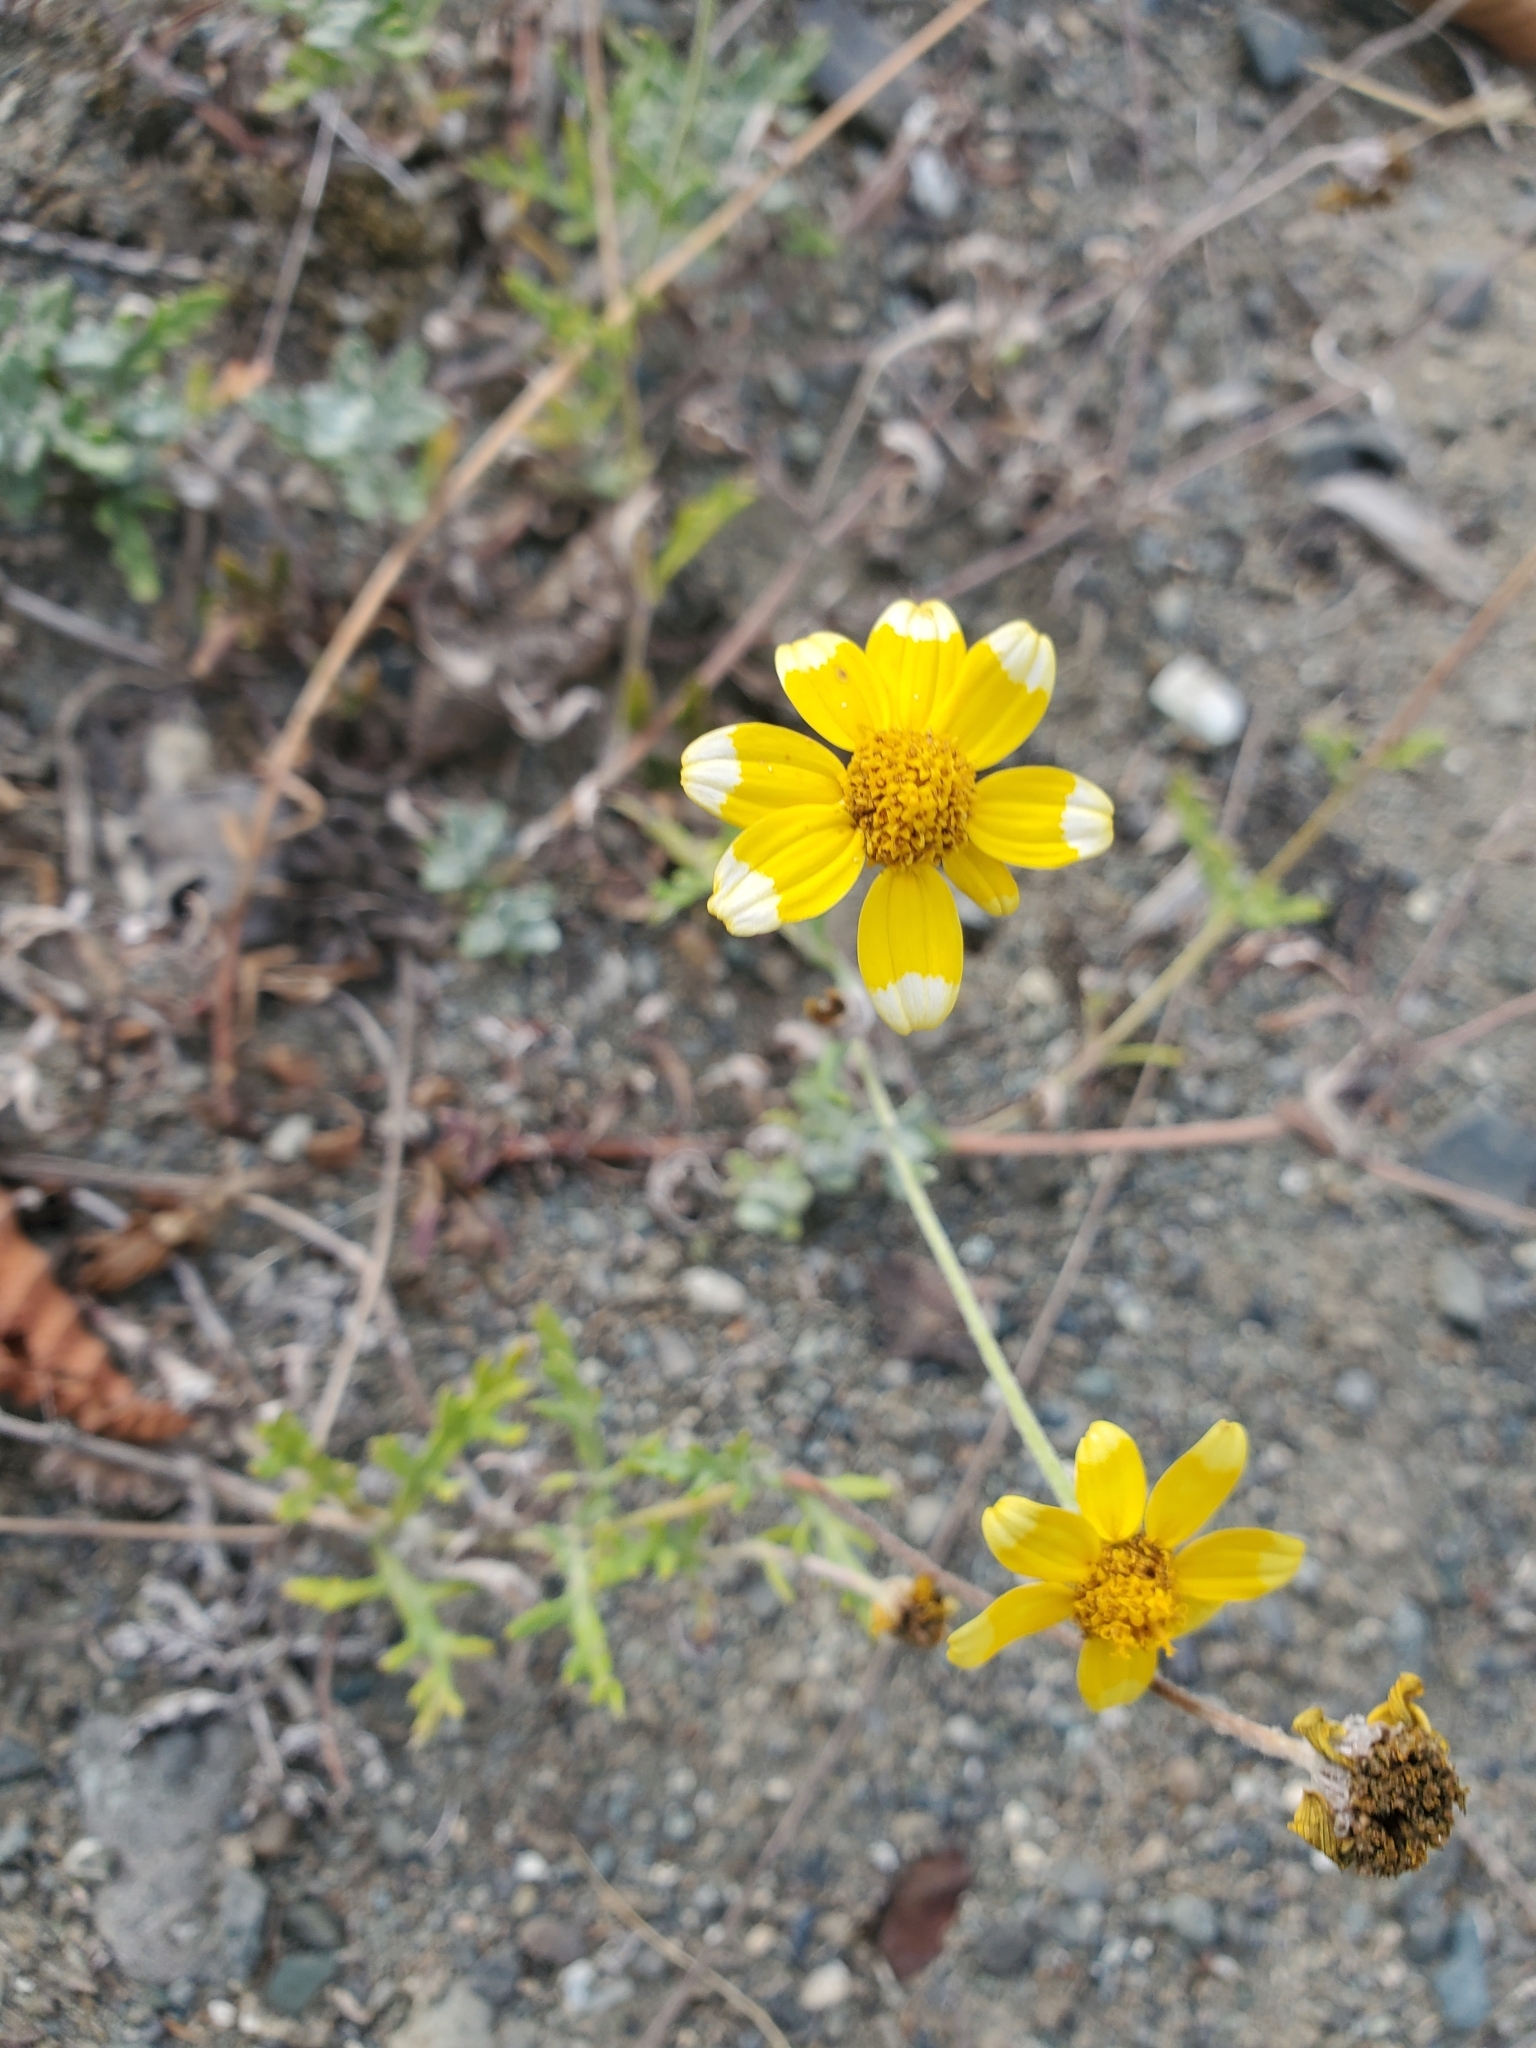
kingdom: Plantae
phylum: Tracheophyta
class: Magnoliopsida
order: Asterales
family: Asteraceae
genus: Eriophyllum
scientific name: Eriophyllum lanatum
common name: Common woolly-sunflower
